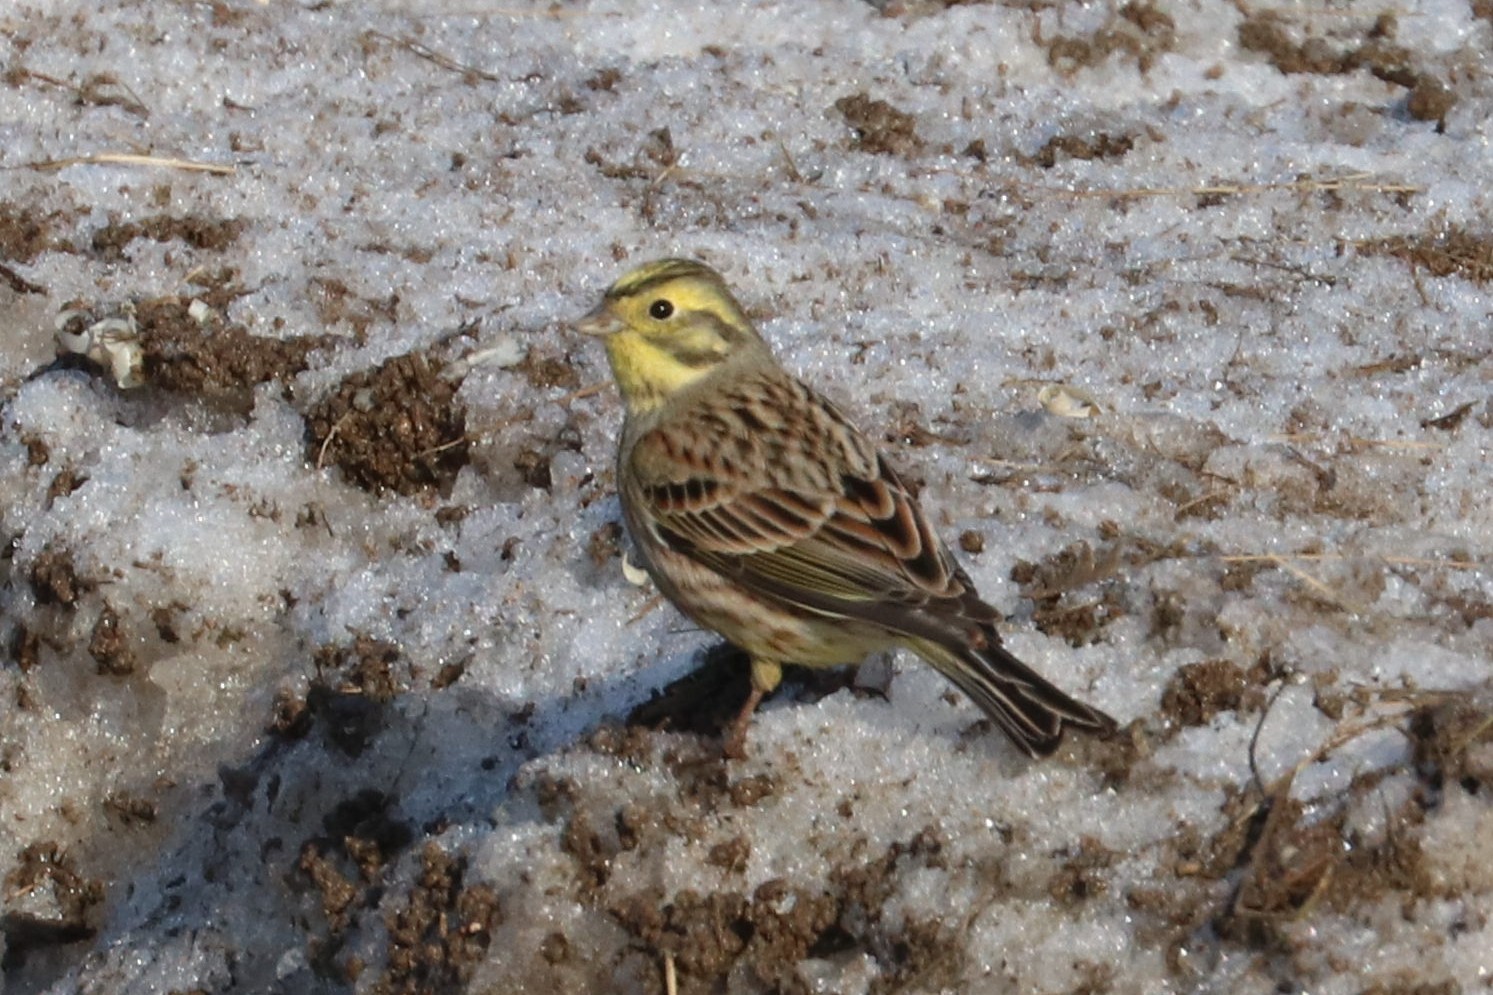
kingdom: Animalia
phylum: Chordata
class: Aves
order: Passeriformes
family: Emberizidae
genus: Emberiza
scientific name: Emberiza citrinella
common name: Yellowhammer
